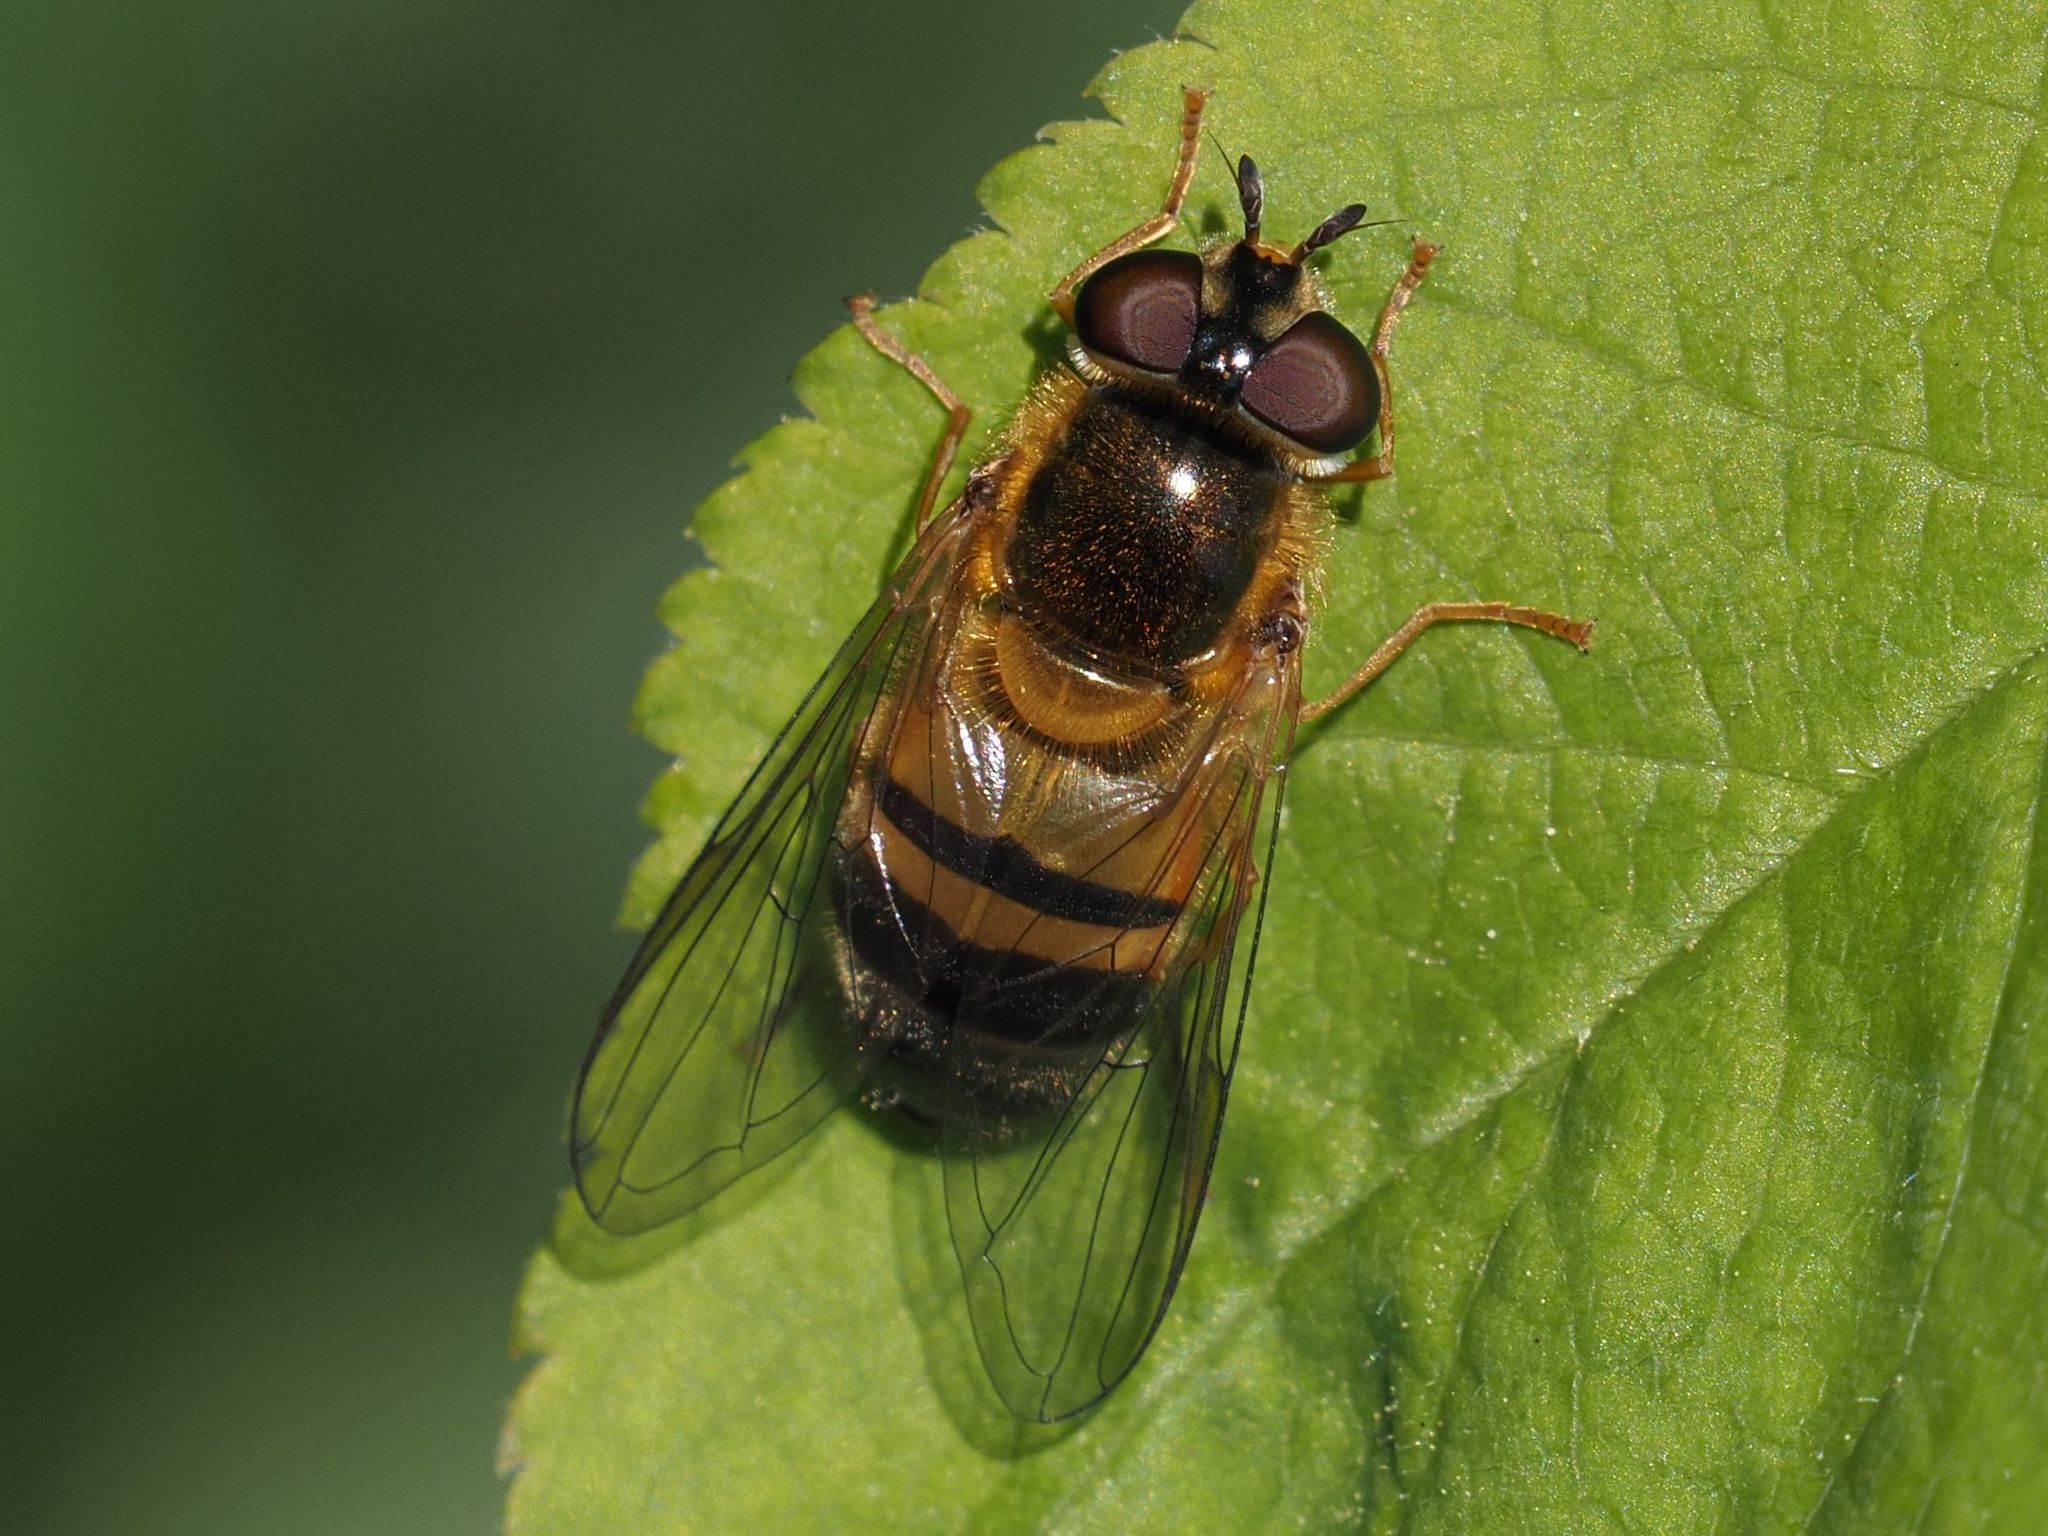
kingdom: Animalia
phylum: Arthropoda
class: Insecta
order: Diptera
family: Syrphidae
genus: Epistrophe
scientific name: Epistrophe eligans
